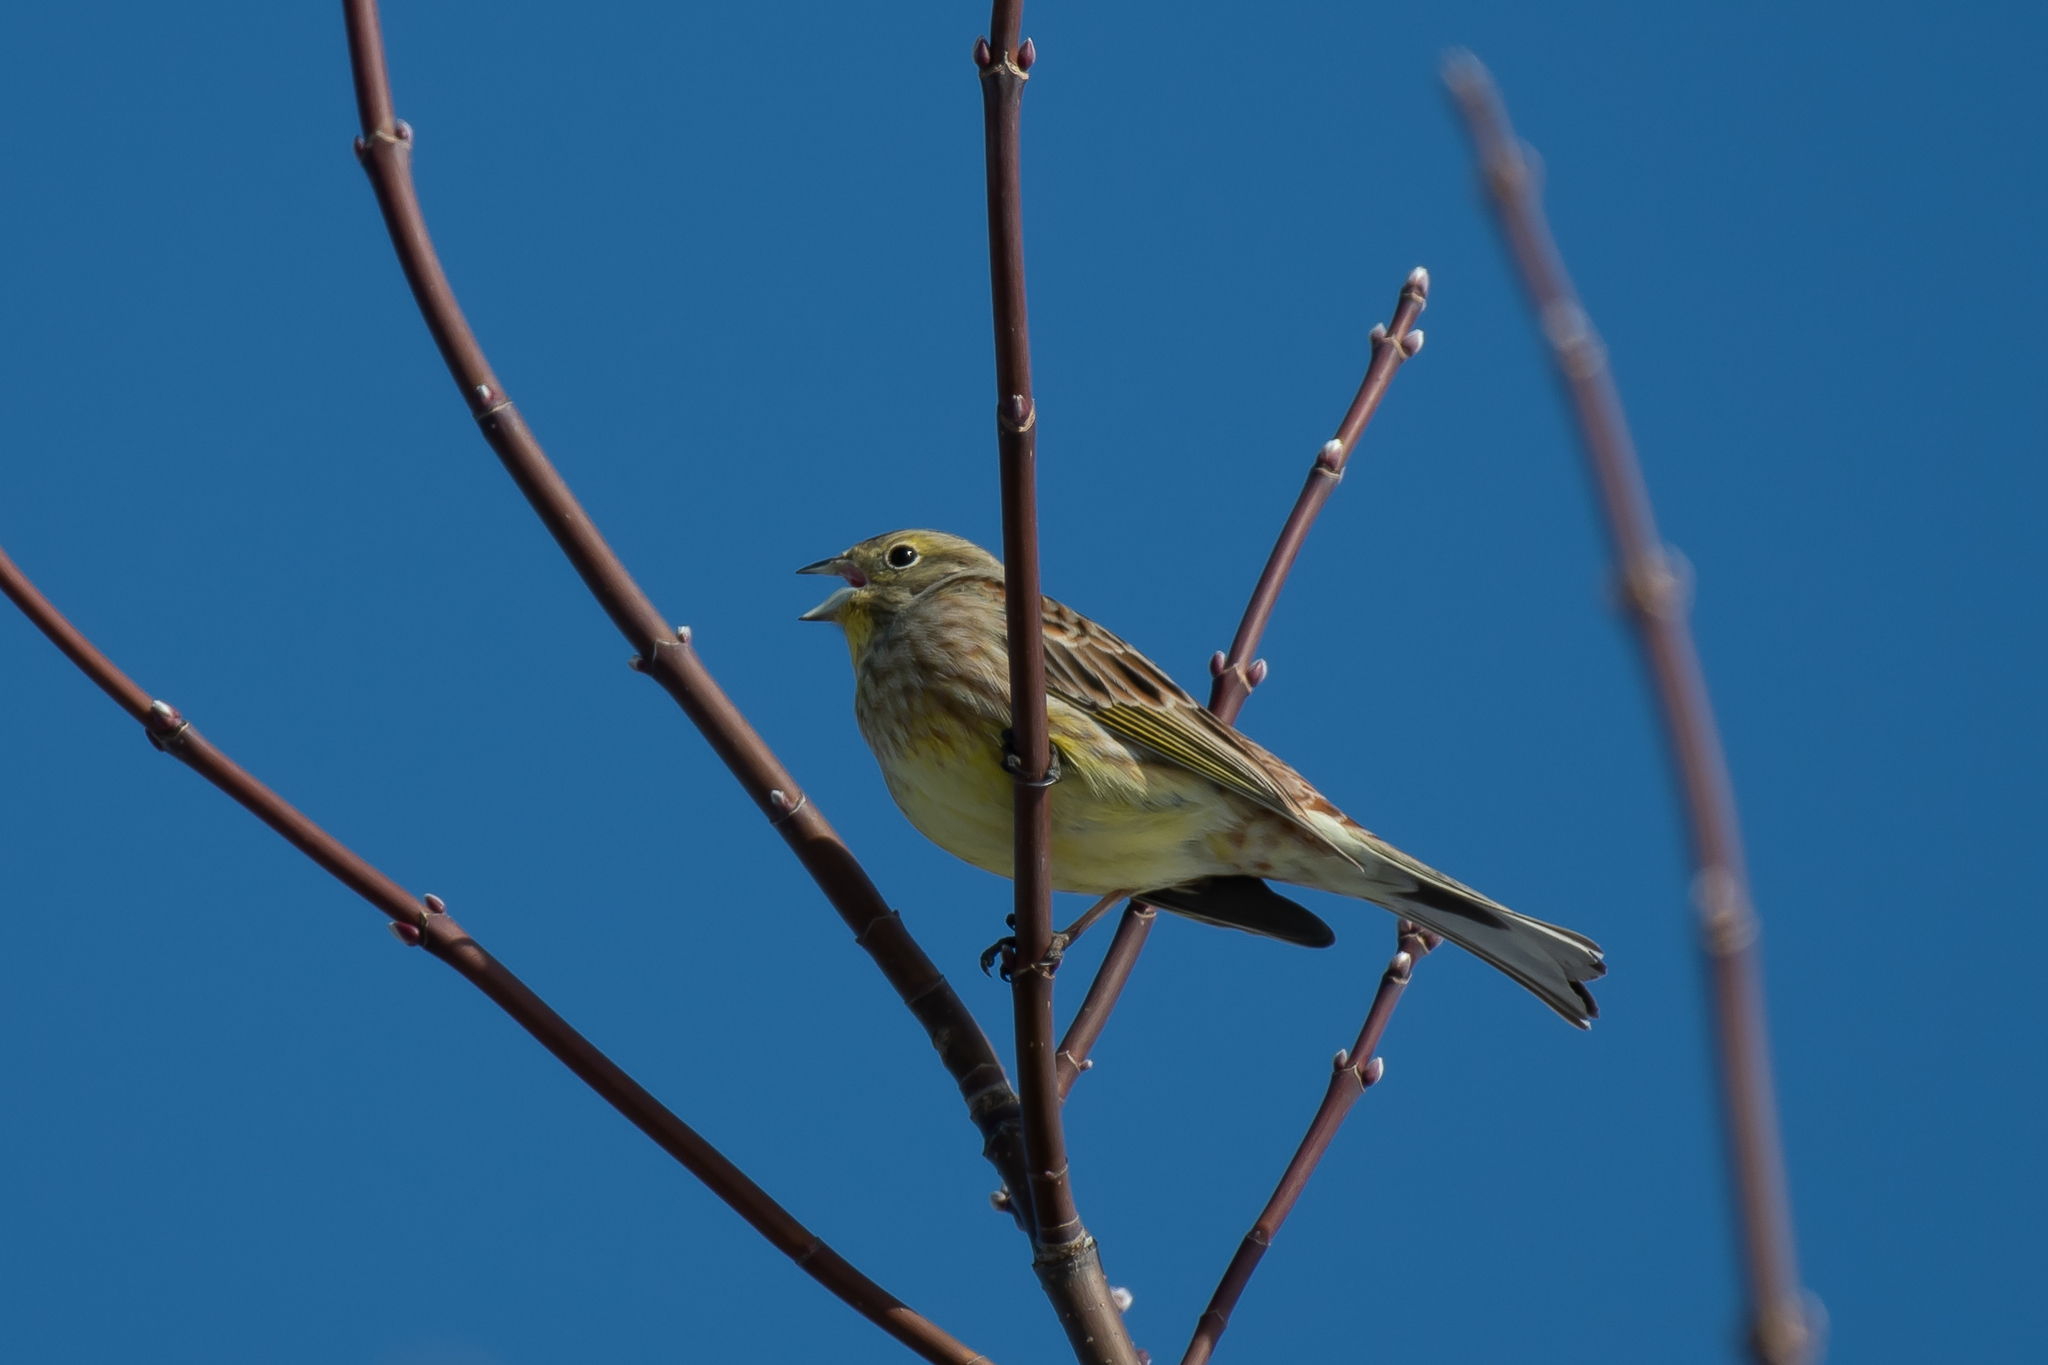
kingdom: Animalia
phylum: Chordata
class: Aves
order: Passeriformes
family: Emberizidae
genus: Emberiza
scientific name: Emberiza citrinella
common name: Yellowhammer
